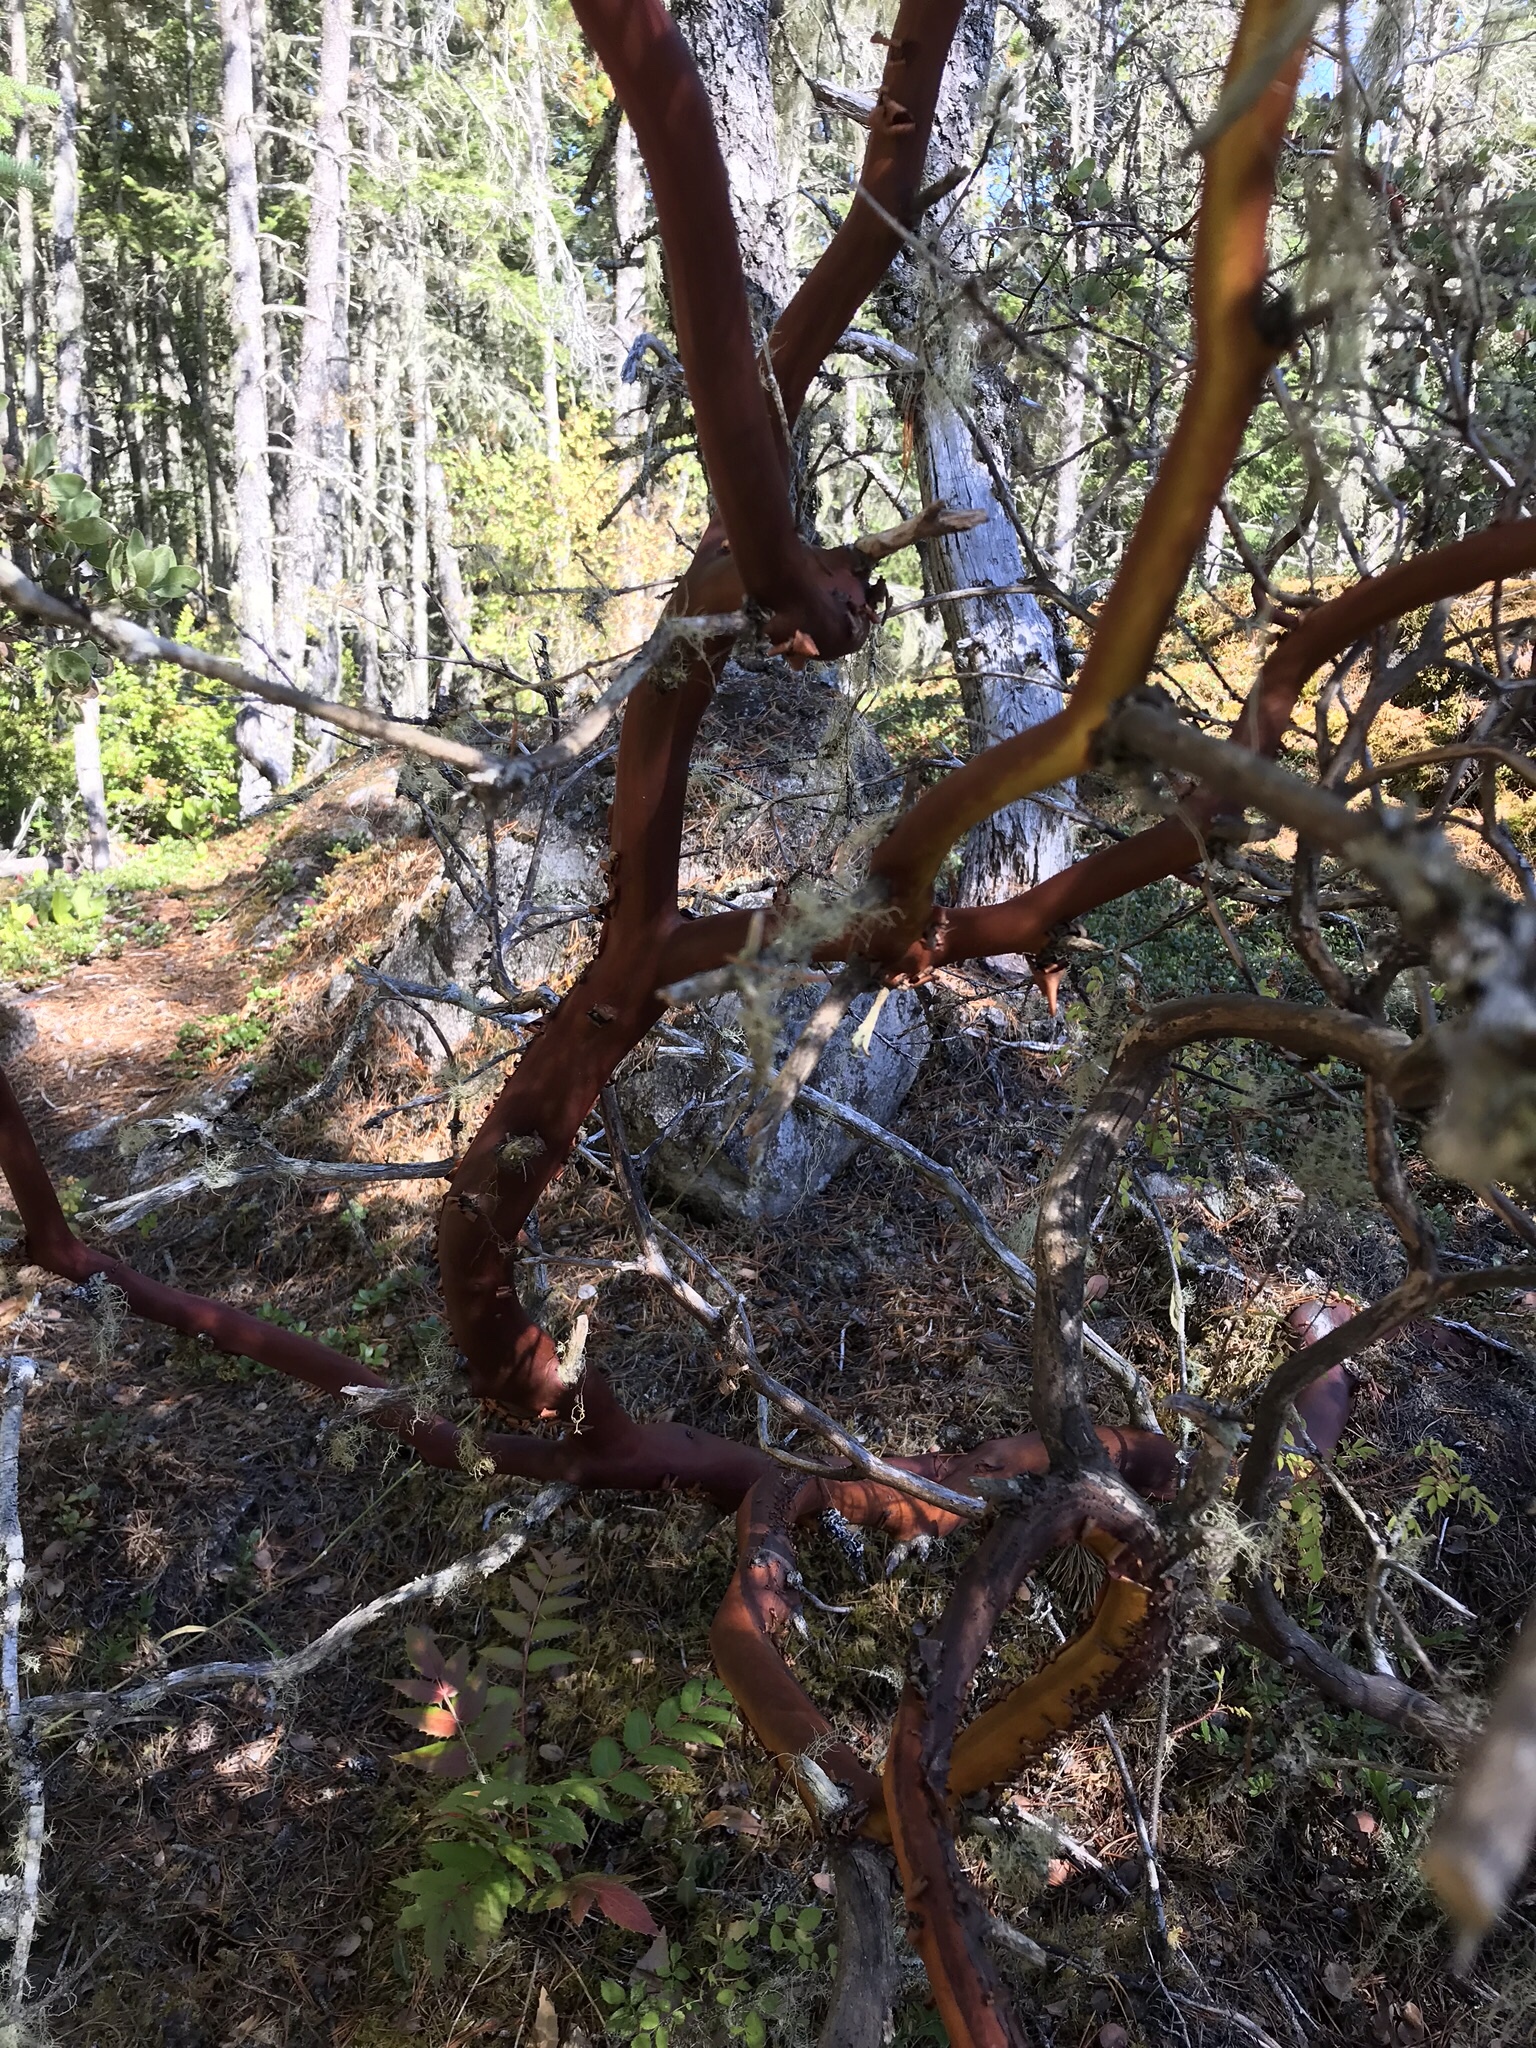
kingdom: Plantae
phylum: Tracheophyta
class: Magnoliopsida
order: Ericales
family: Ericaceae
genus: Arctostaphylos
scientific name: Arctostaphylos columbiana
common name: Bristly bearberry
